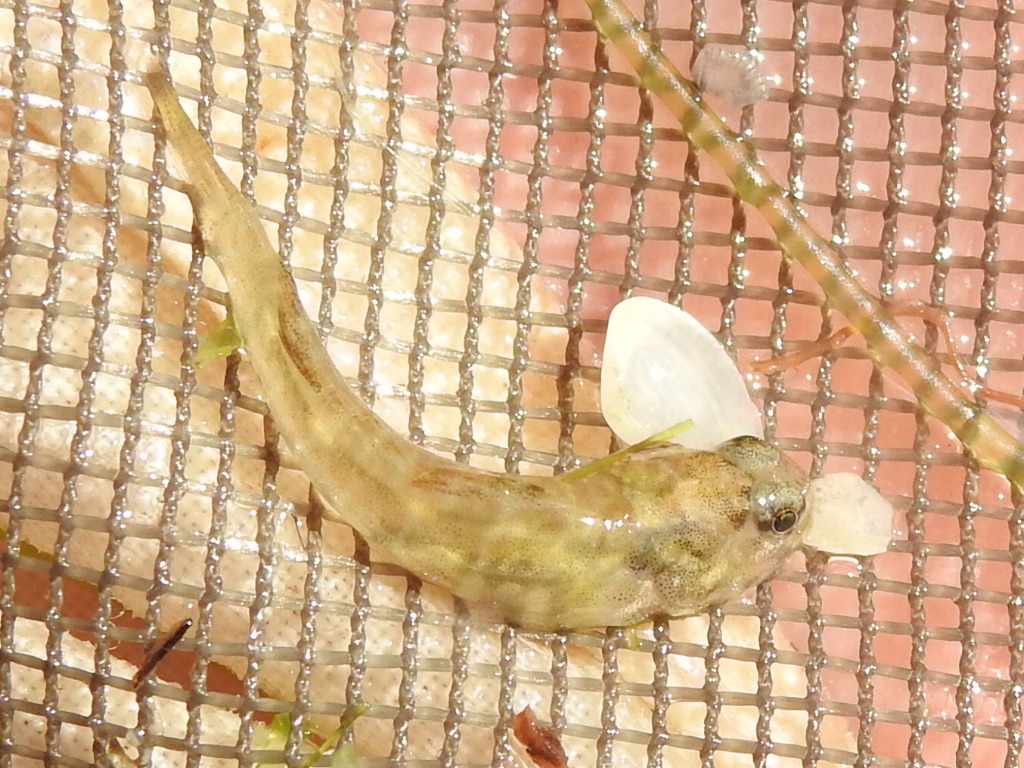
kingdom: Animalia
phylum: Chordata
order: Perciformes
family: Gobiidae
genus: Gobiosoma
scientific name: Gobiosoma bosc
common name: Naked goby
